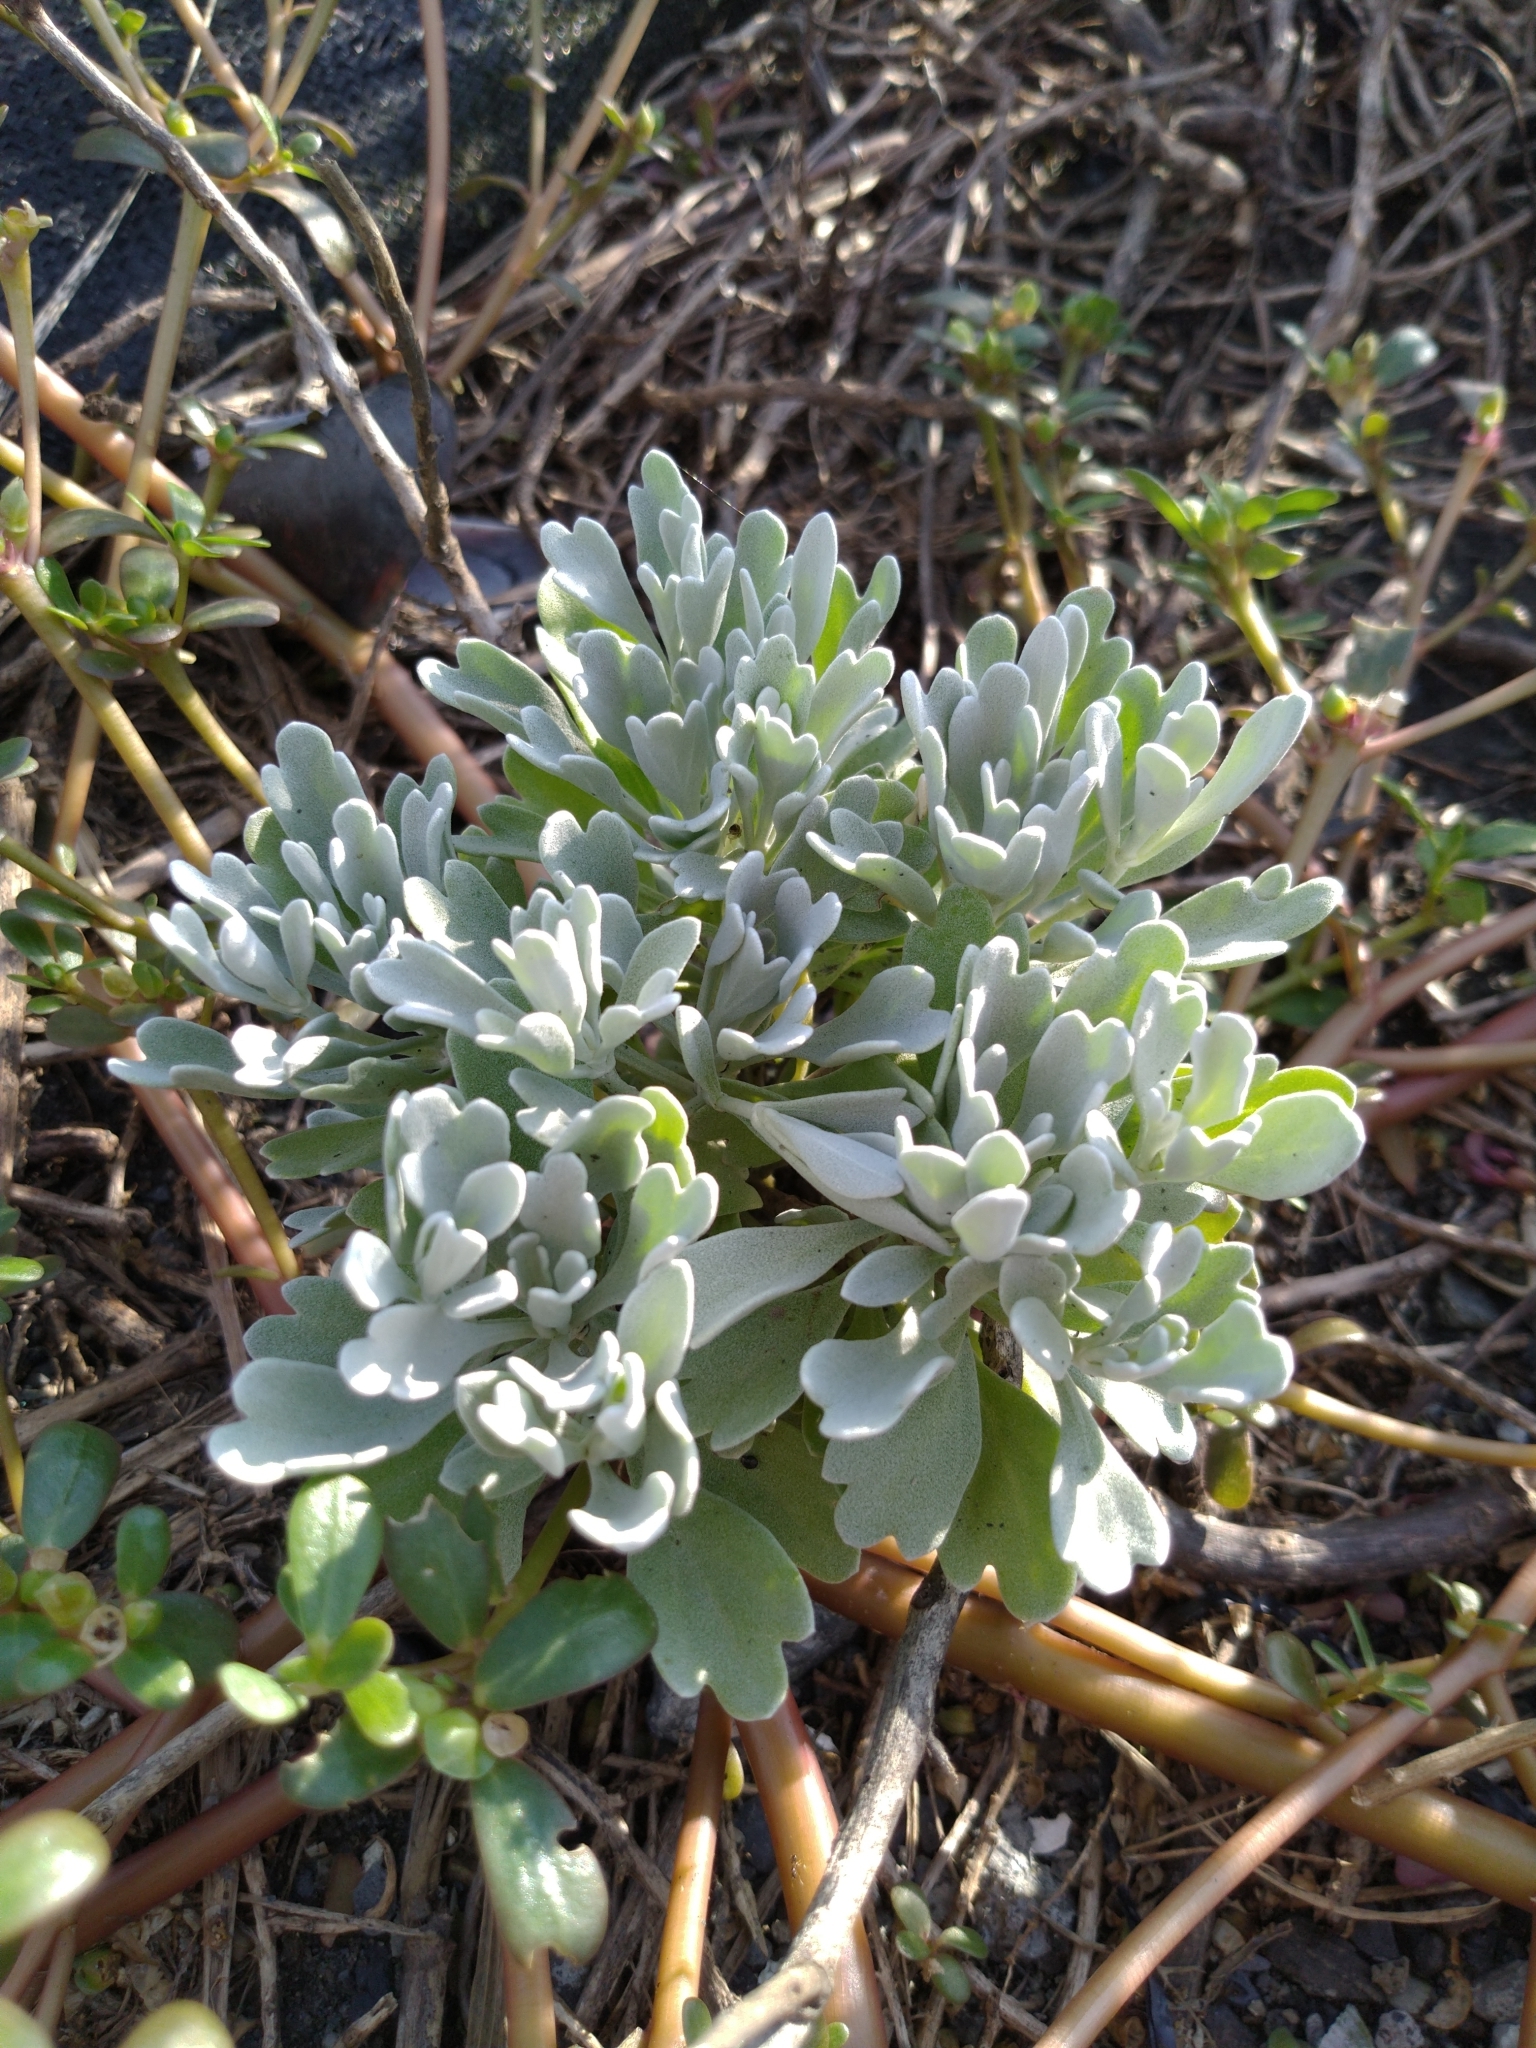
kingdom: Plantae
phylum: Tracheophyta
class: Magnoliopsida
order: Asterales
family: Asteraceae
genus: Crossostephium
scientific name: Crossostephium chinense
